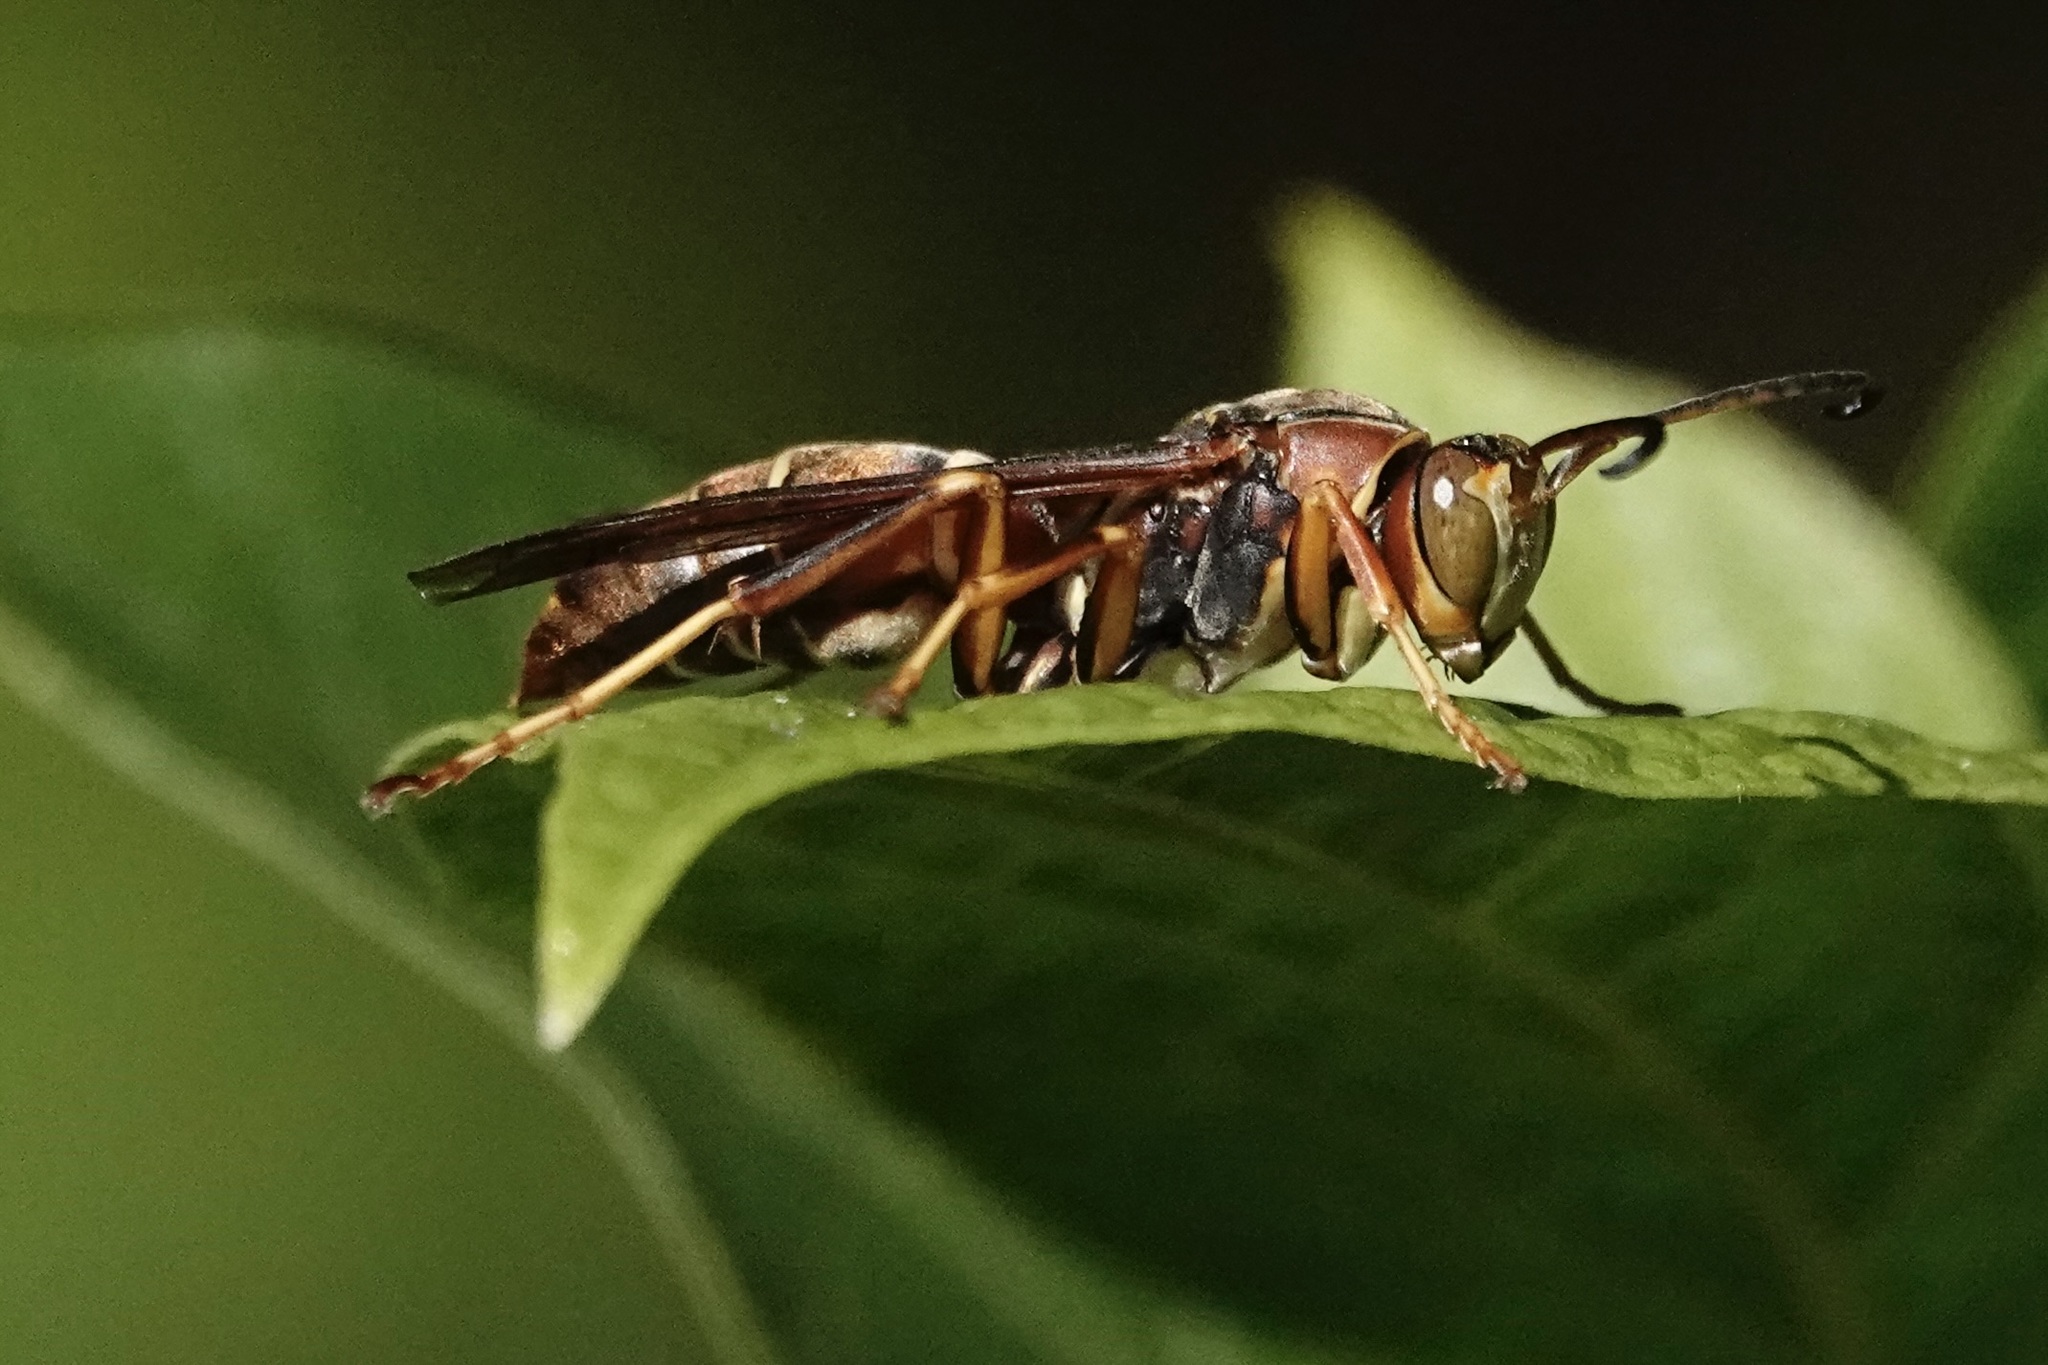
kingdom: Animalia
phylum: Arthropoda
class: Insecta
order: Hymenoptera
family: Eumenidae
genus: Polistes
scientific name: Polistes fuscatus
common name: Dark paper wasp
